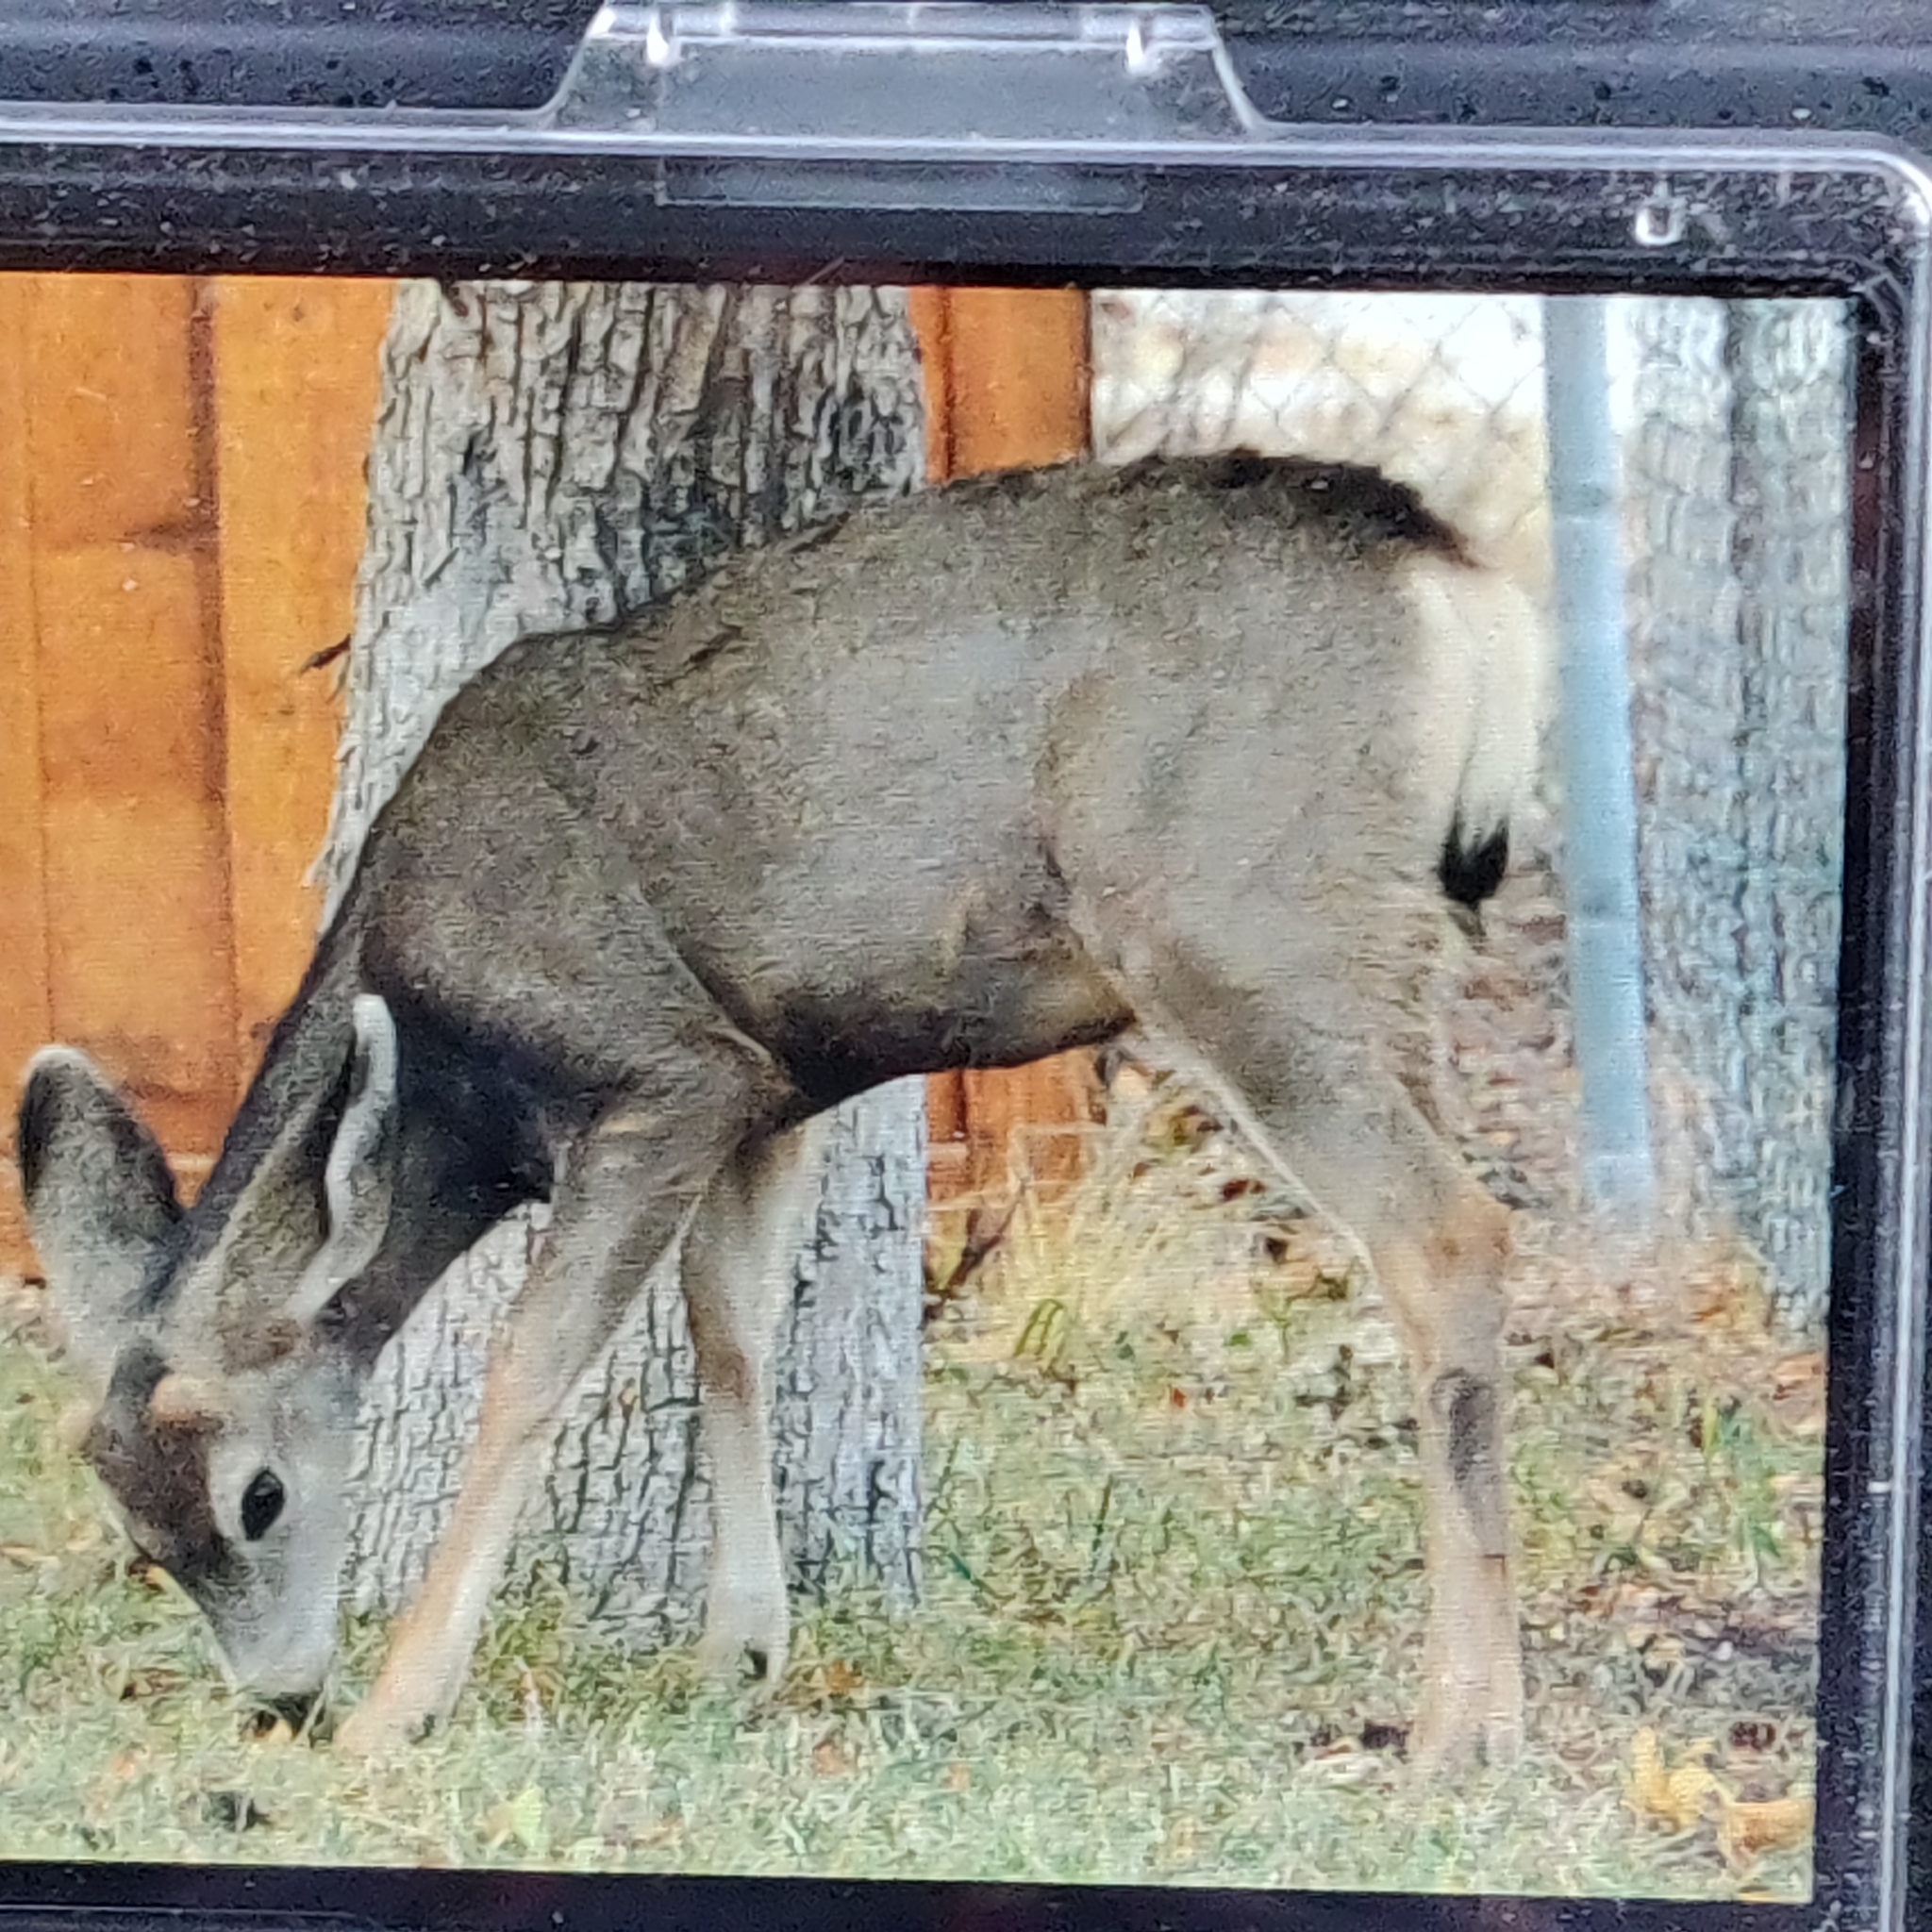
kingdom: Animalia
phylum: Chordata
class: Mammalia
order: Artiodactyla
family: Cervidae
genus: Odocoileus
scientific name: Odocoileus hemionus
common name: Mule deer
